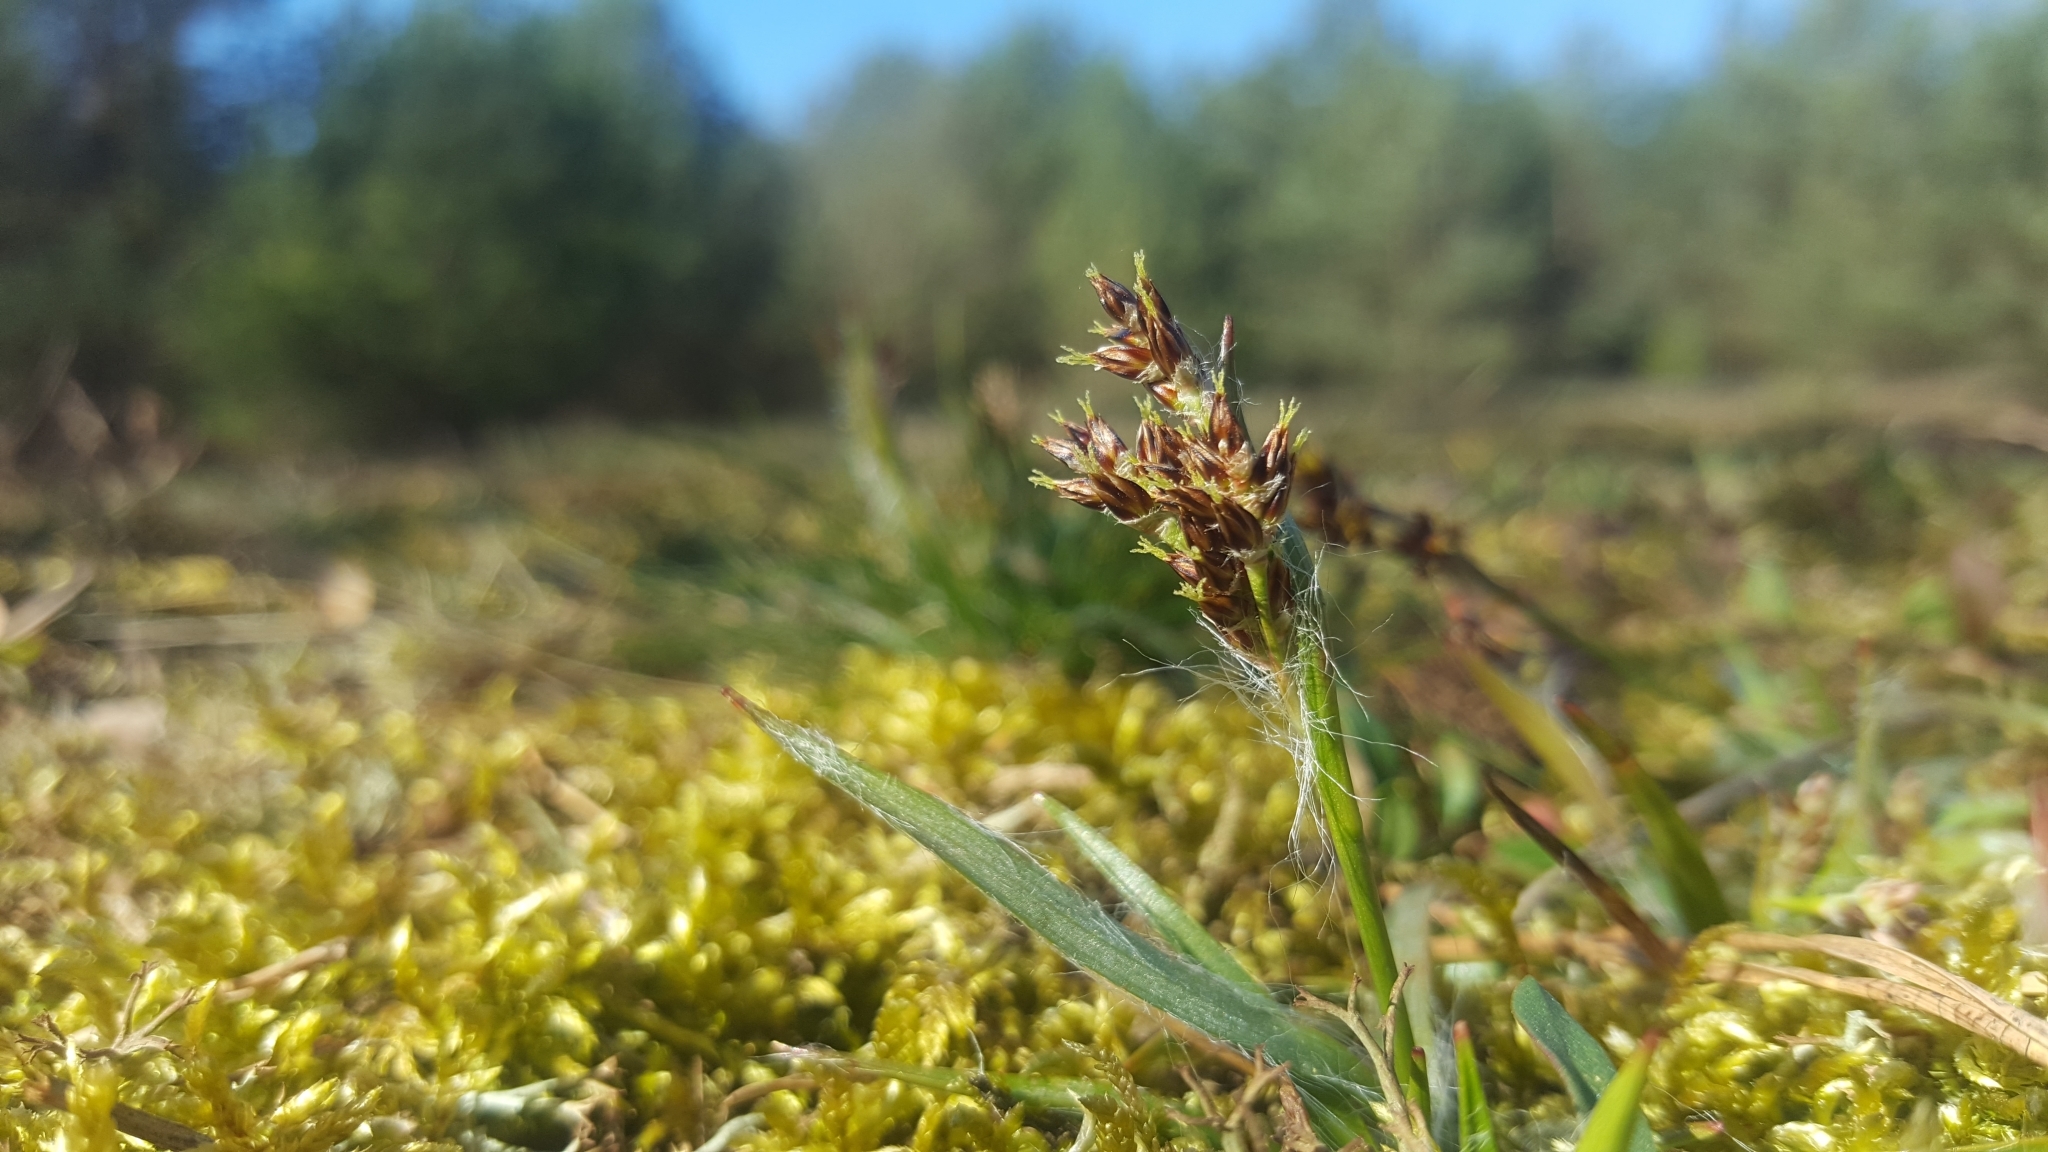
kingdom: Plantae
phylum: Tracheophyta
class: Liliopsida
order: Poales
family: Juncaceae
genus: Luzula
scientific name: Luzula campestris
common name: Field wood-rush
